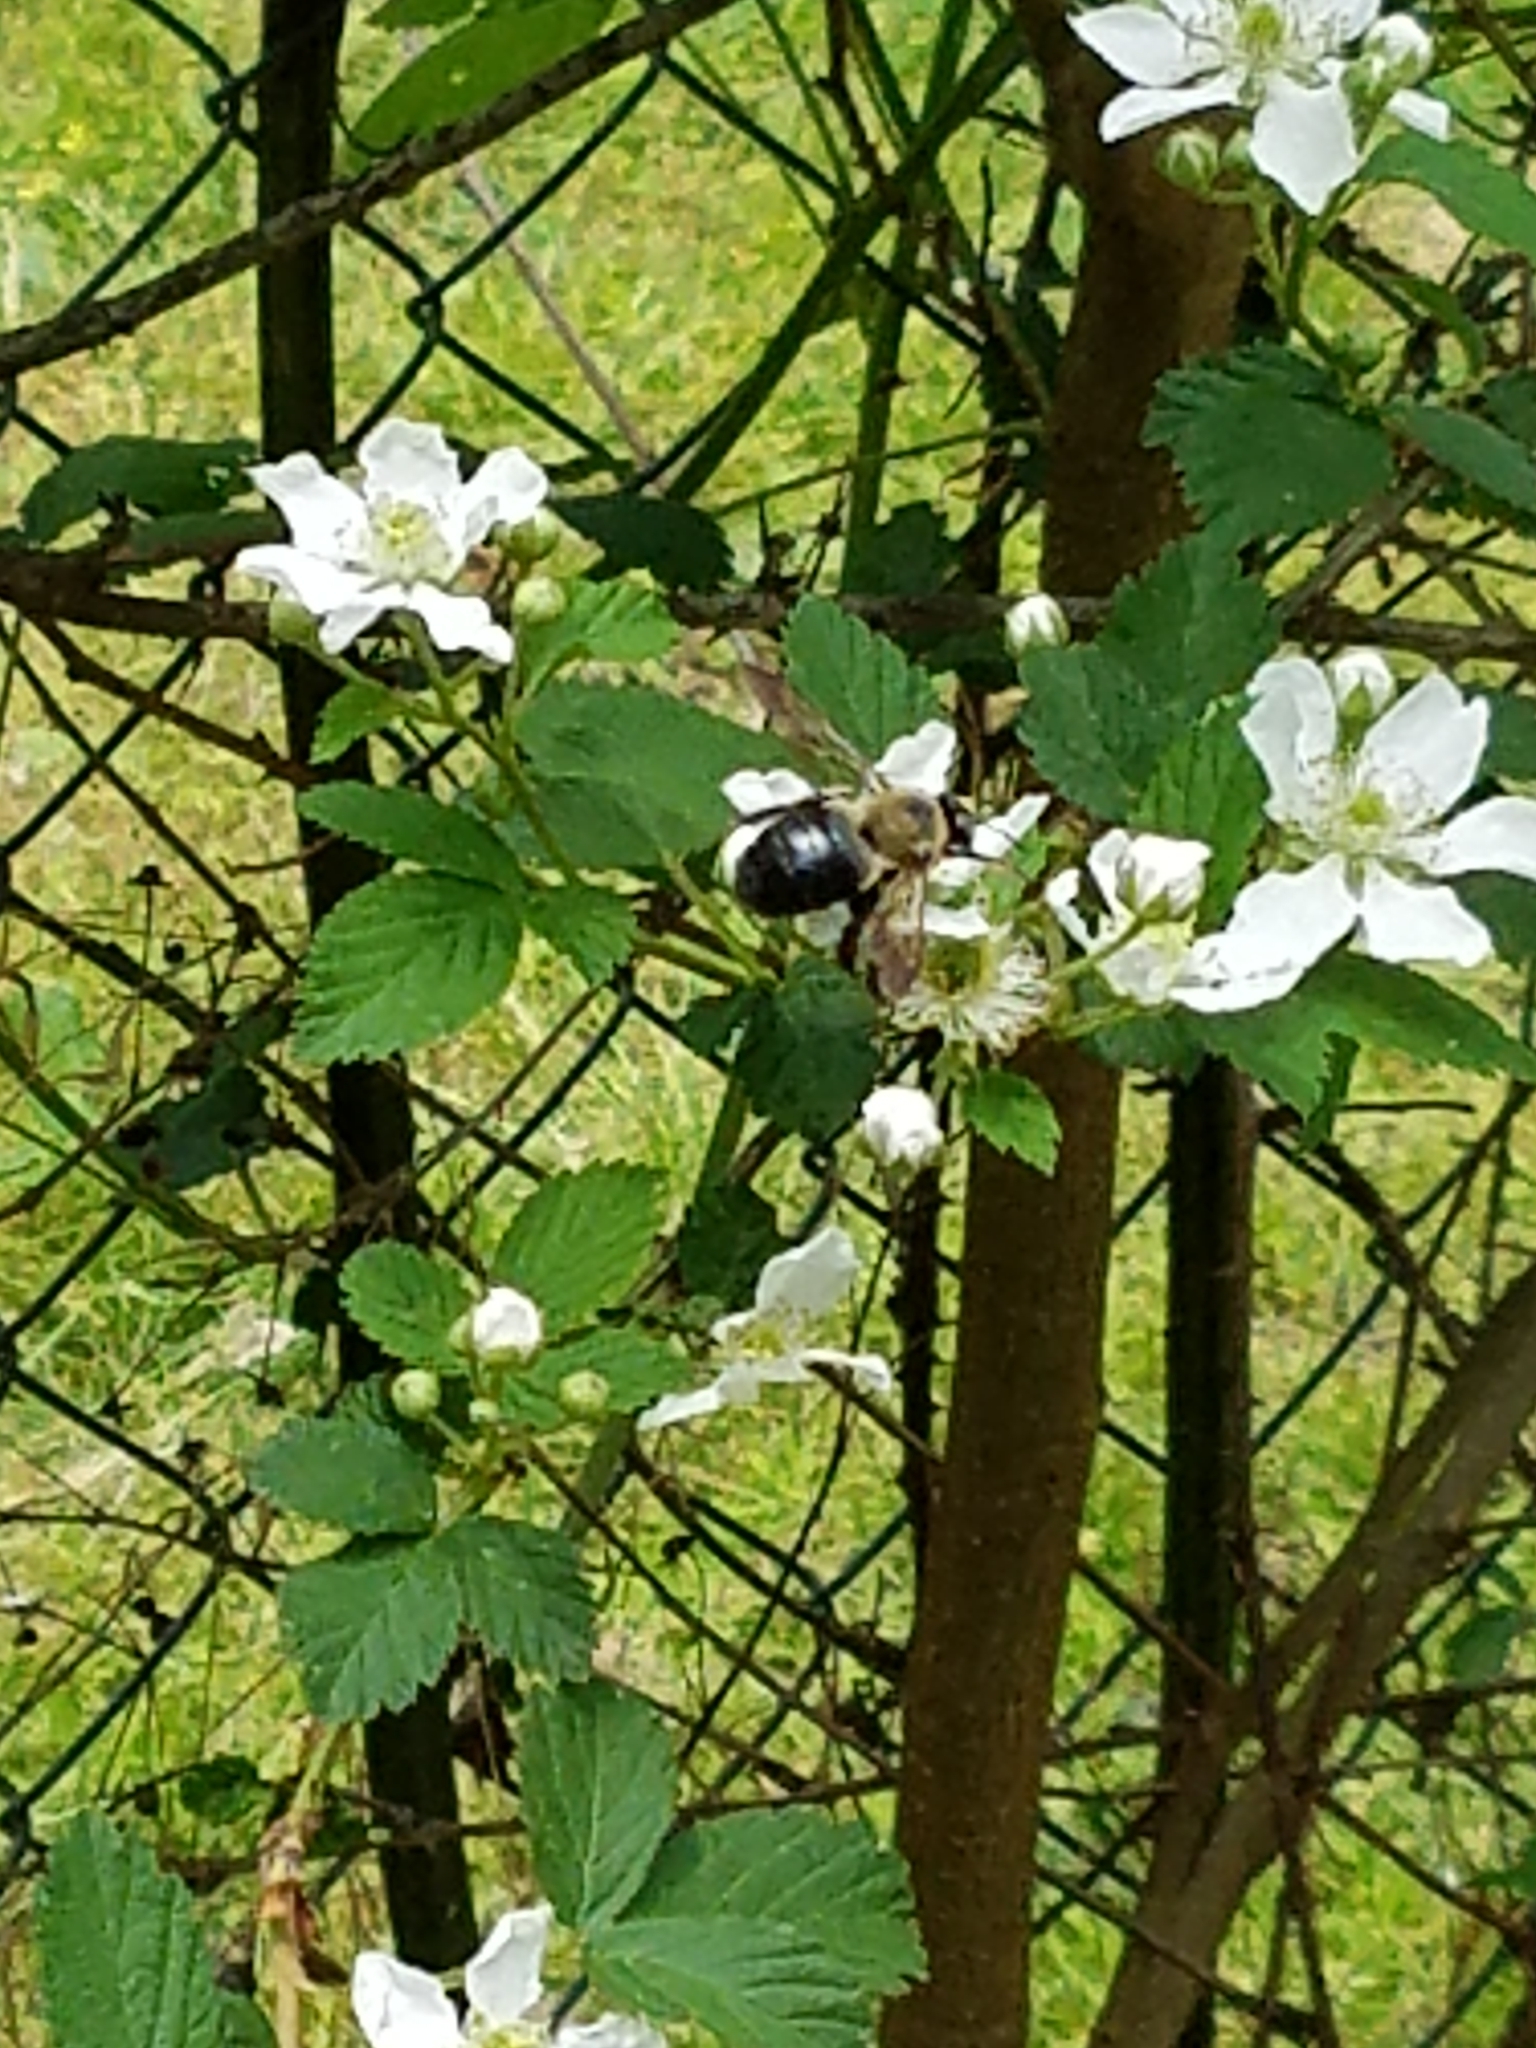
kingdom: Animalia
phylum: Arthropoda
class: Insecta
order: Hymenoptera
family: Apidae
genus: Xylocopa
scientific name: Xylocopa virginica
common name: Carpenter bee
